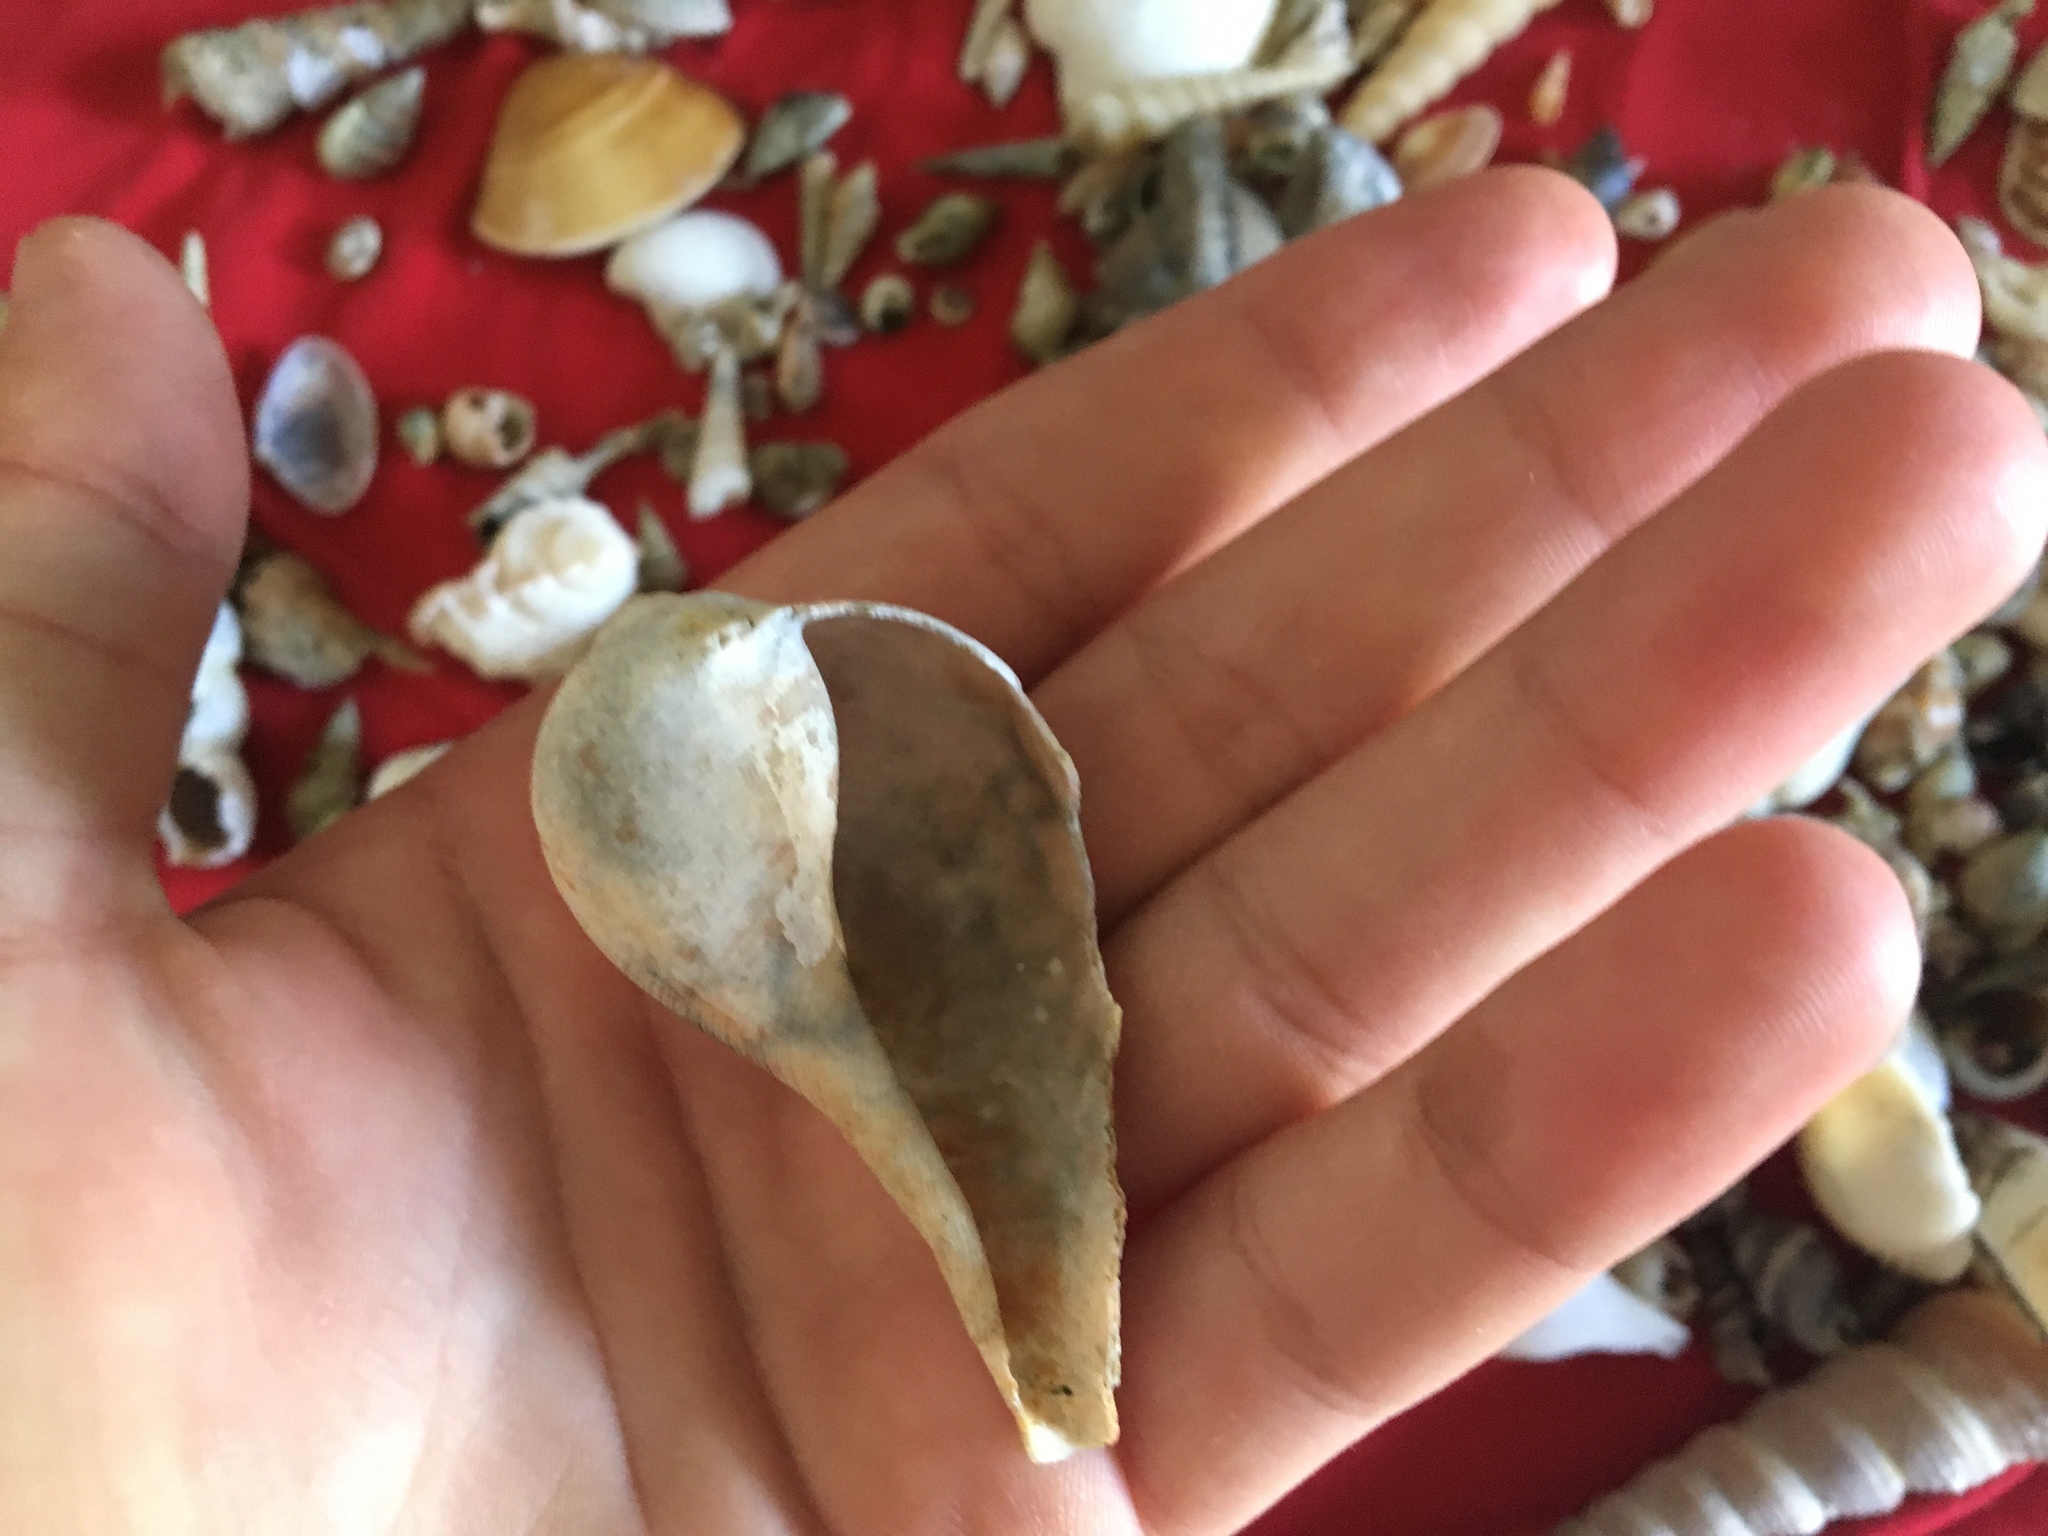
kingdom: Animalia
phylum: Mollusca
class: Gastropoda
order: Littorinimorpha
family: Ficidae
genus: Ficus
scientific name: Ficus ficus
